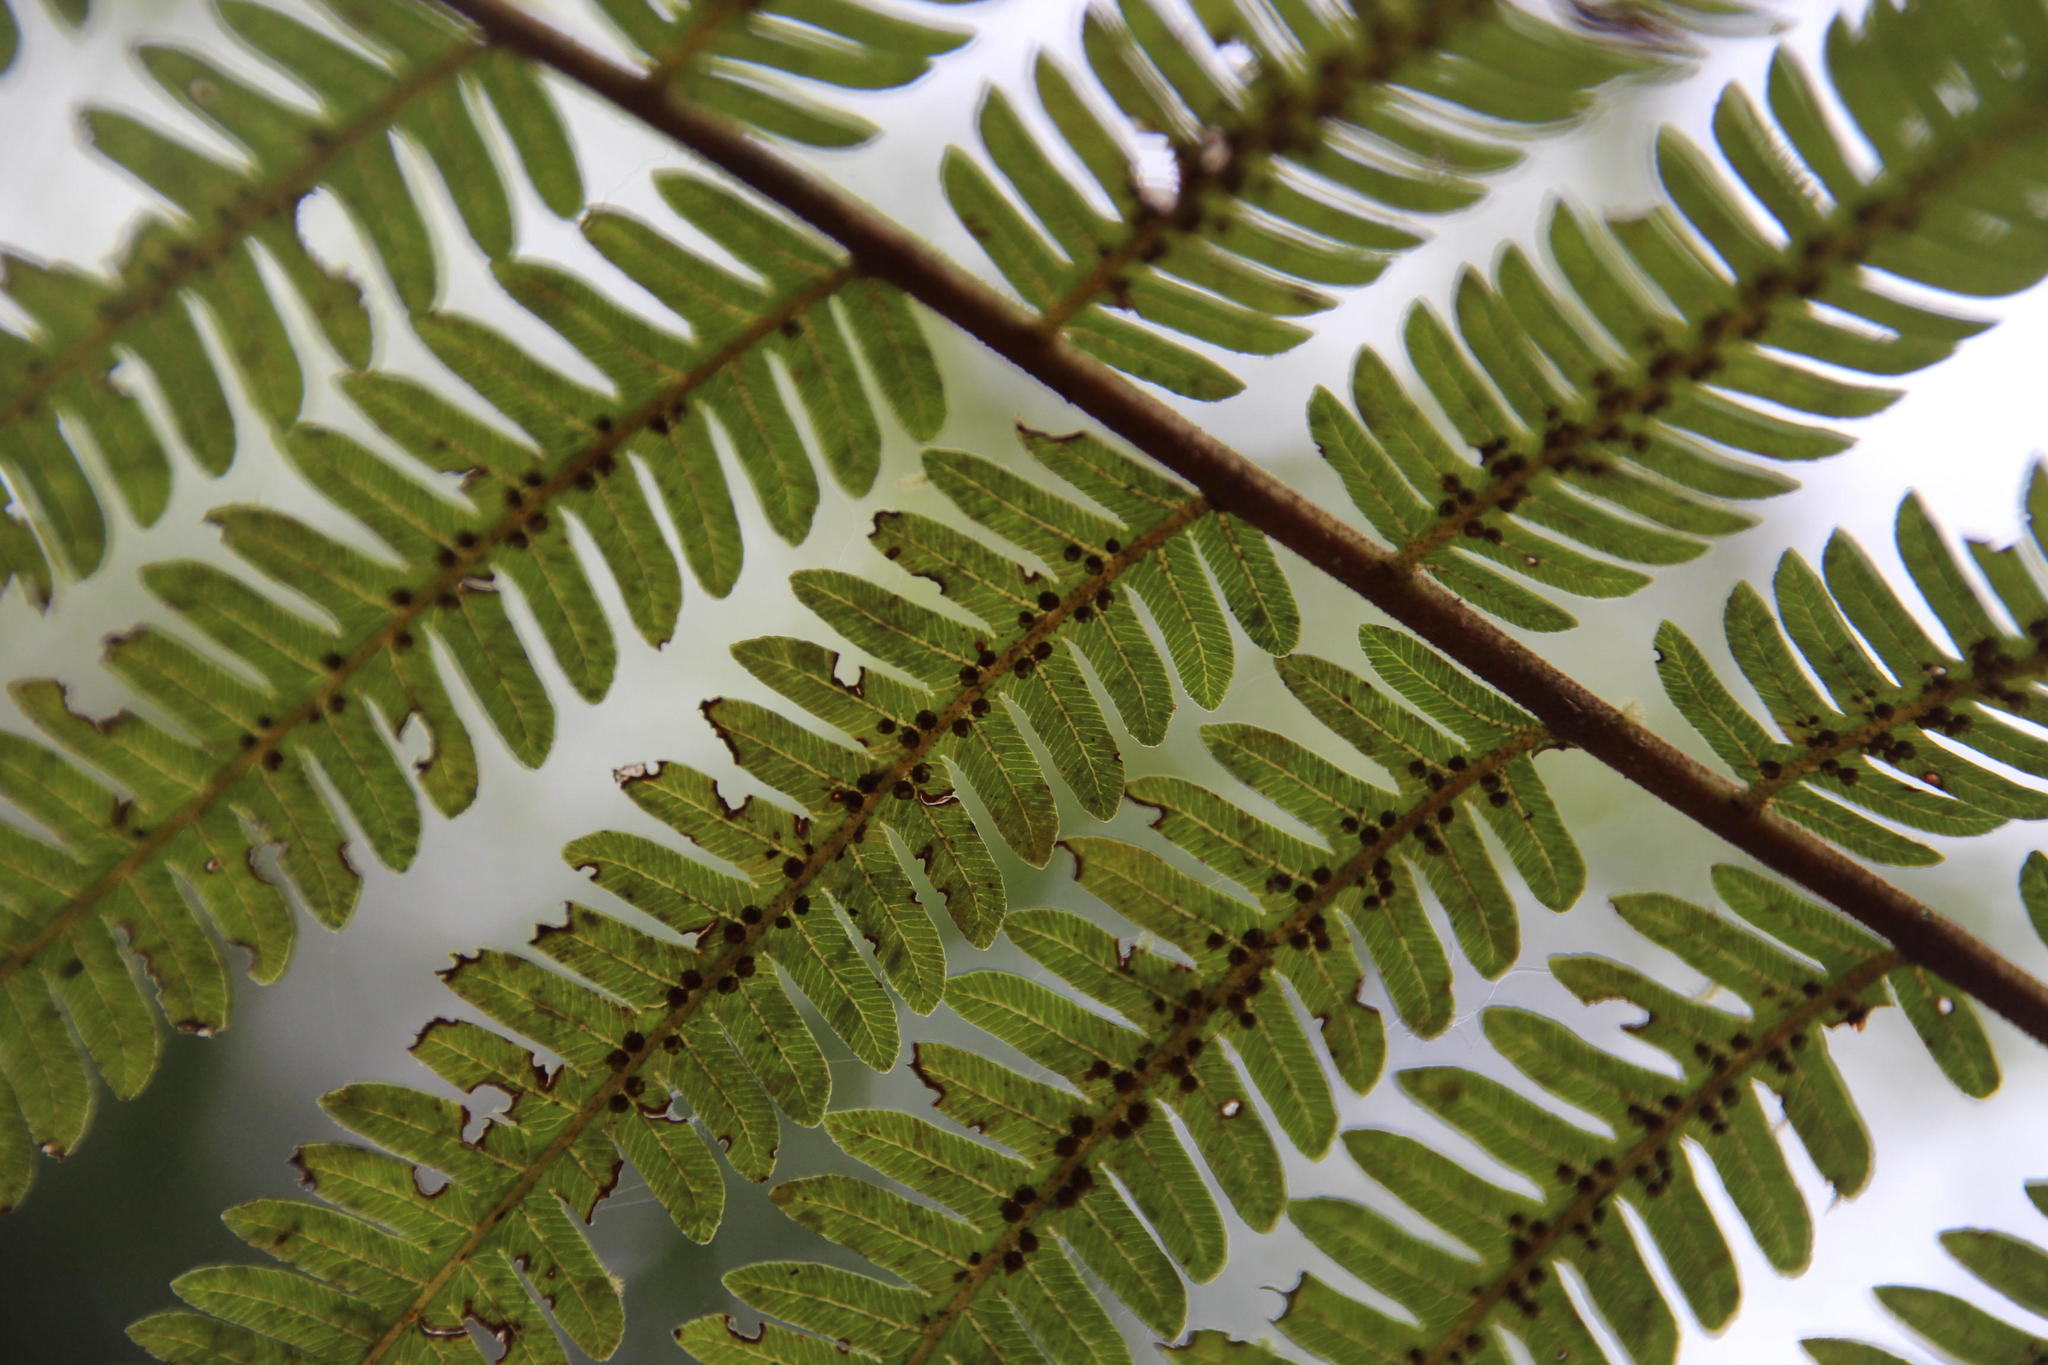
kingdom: Plantae
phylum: Tracheophyta
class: Polypodiopsida
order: Cyatheales
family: Cyatheaceae
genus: Alsophila
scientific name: Alsophila cuspidata
